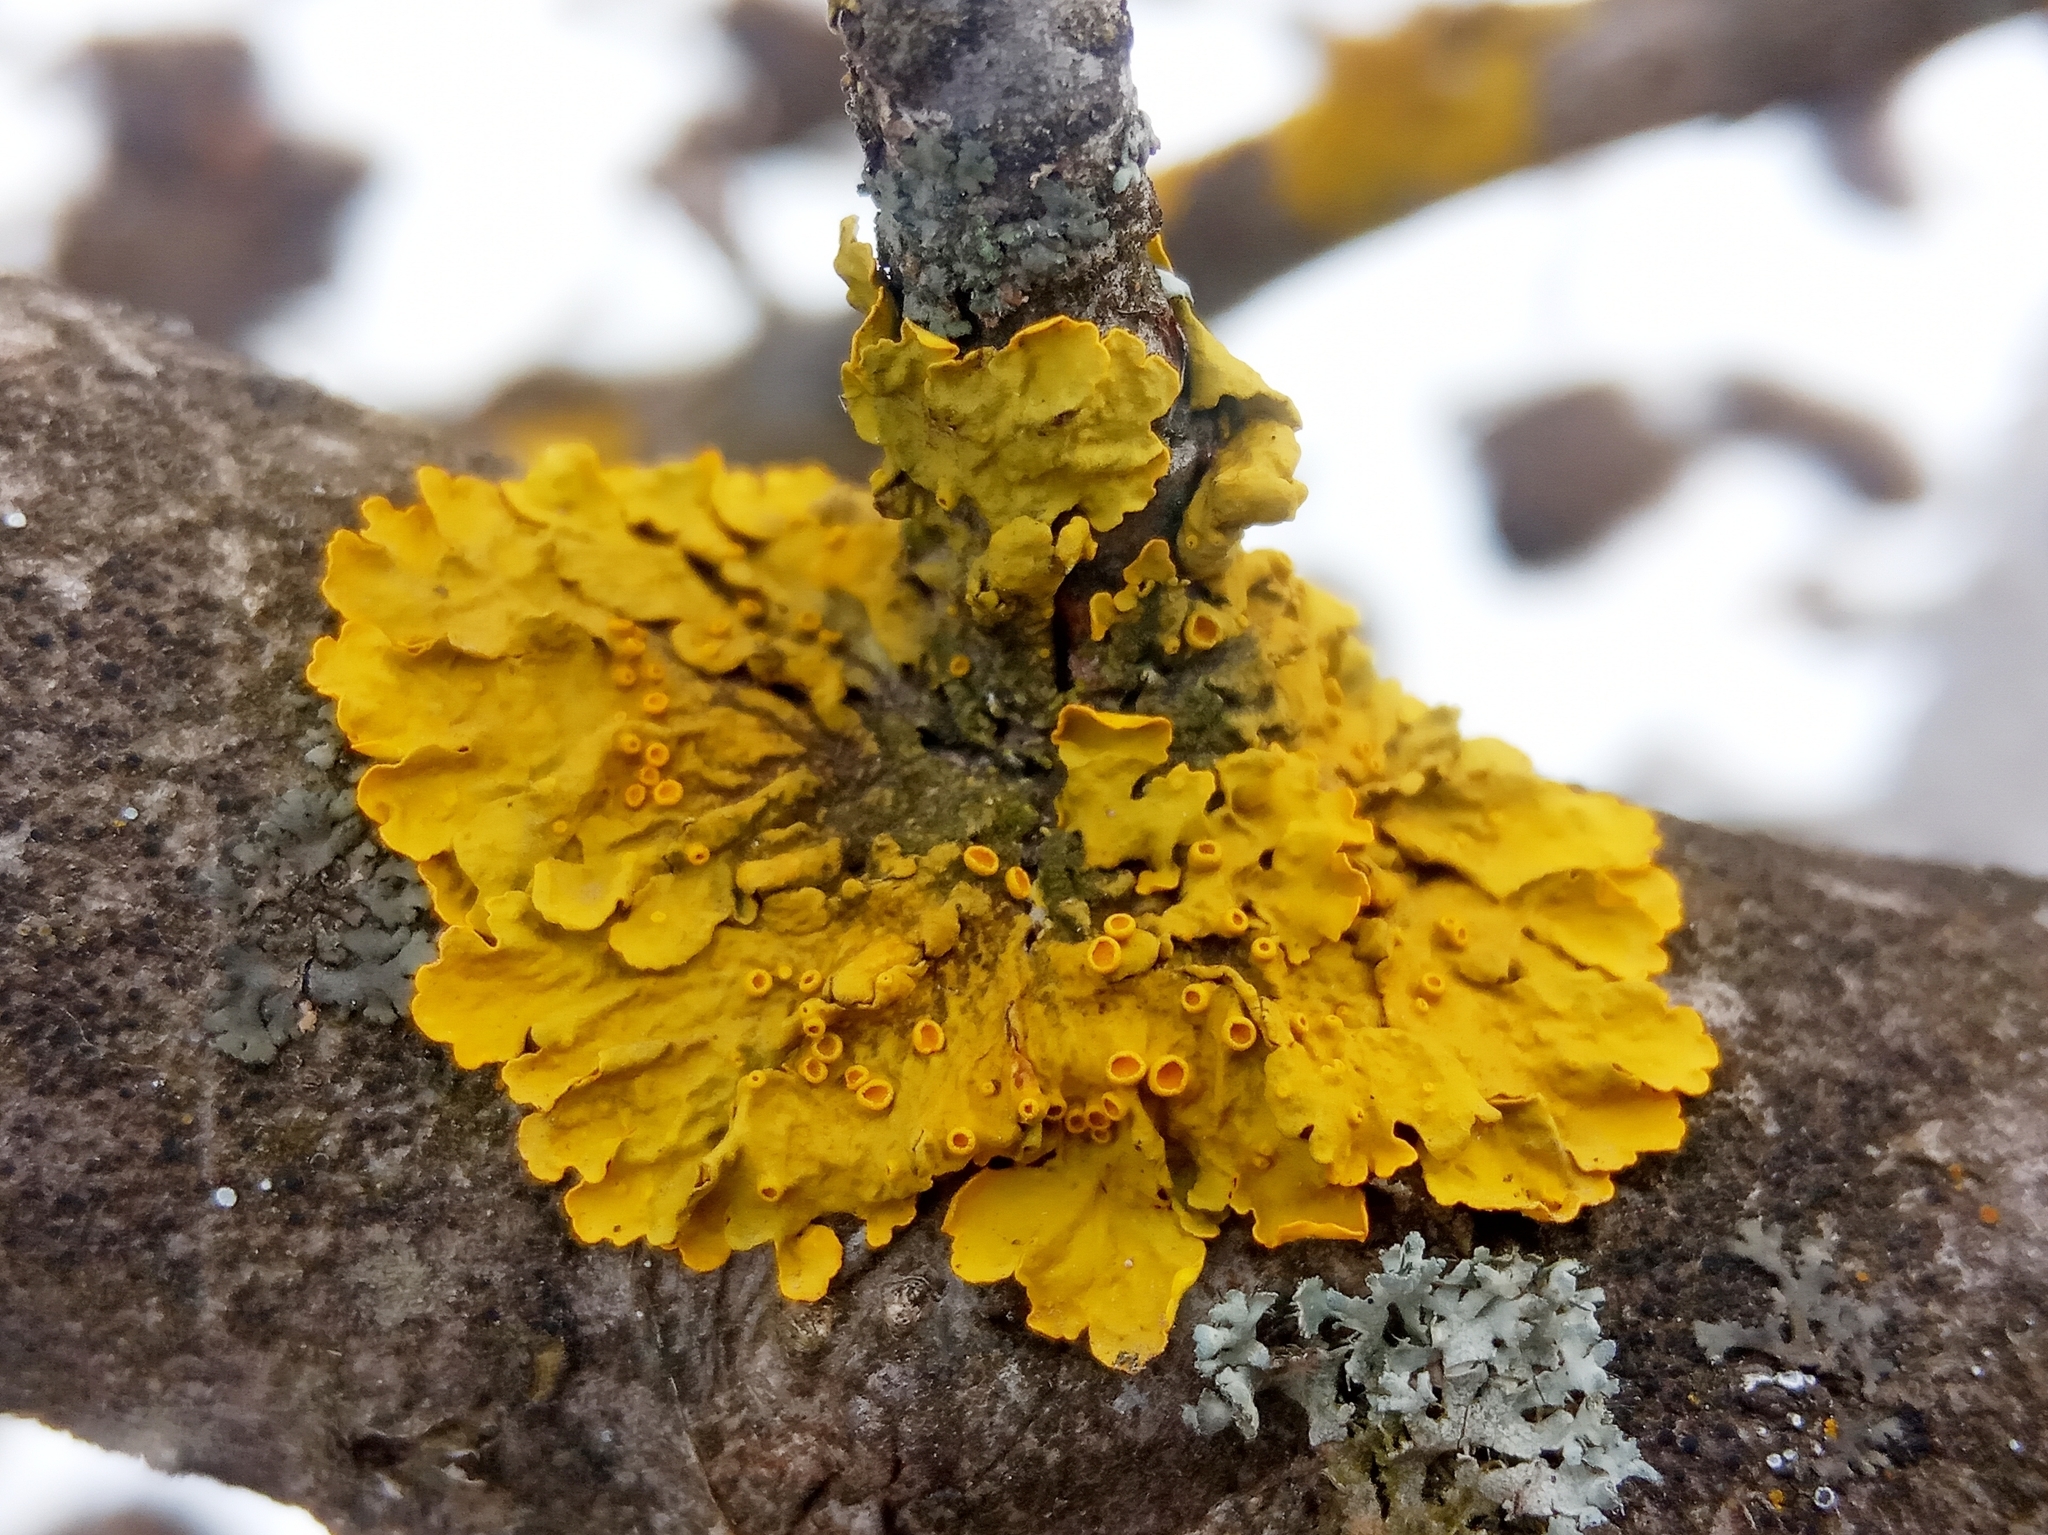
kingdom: Fungi
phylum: Ascomycota
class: Lecanoromycetes
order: Teloschistales
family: Teloschistaceae
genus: Xanthoria
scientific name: Xanthoria parietina
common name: Common orange lichen
